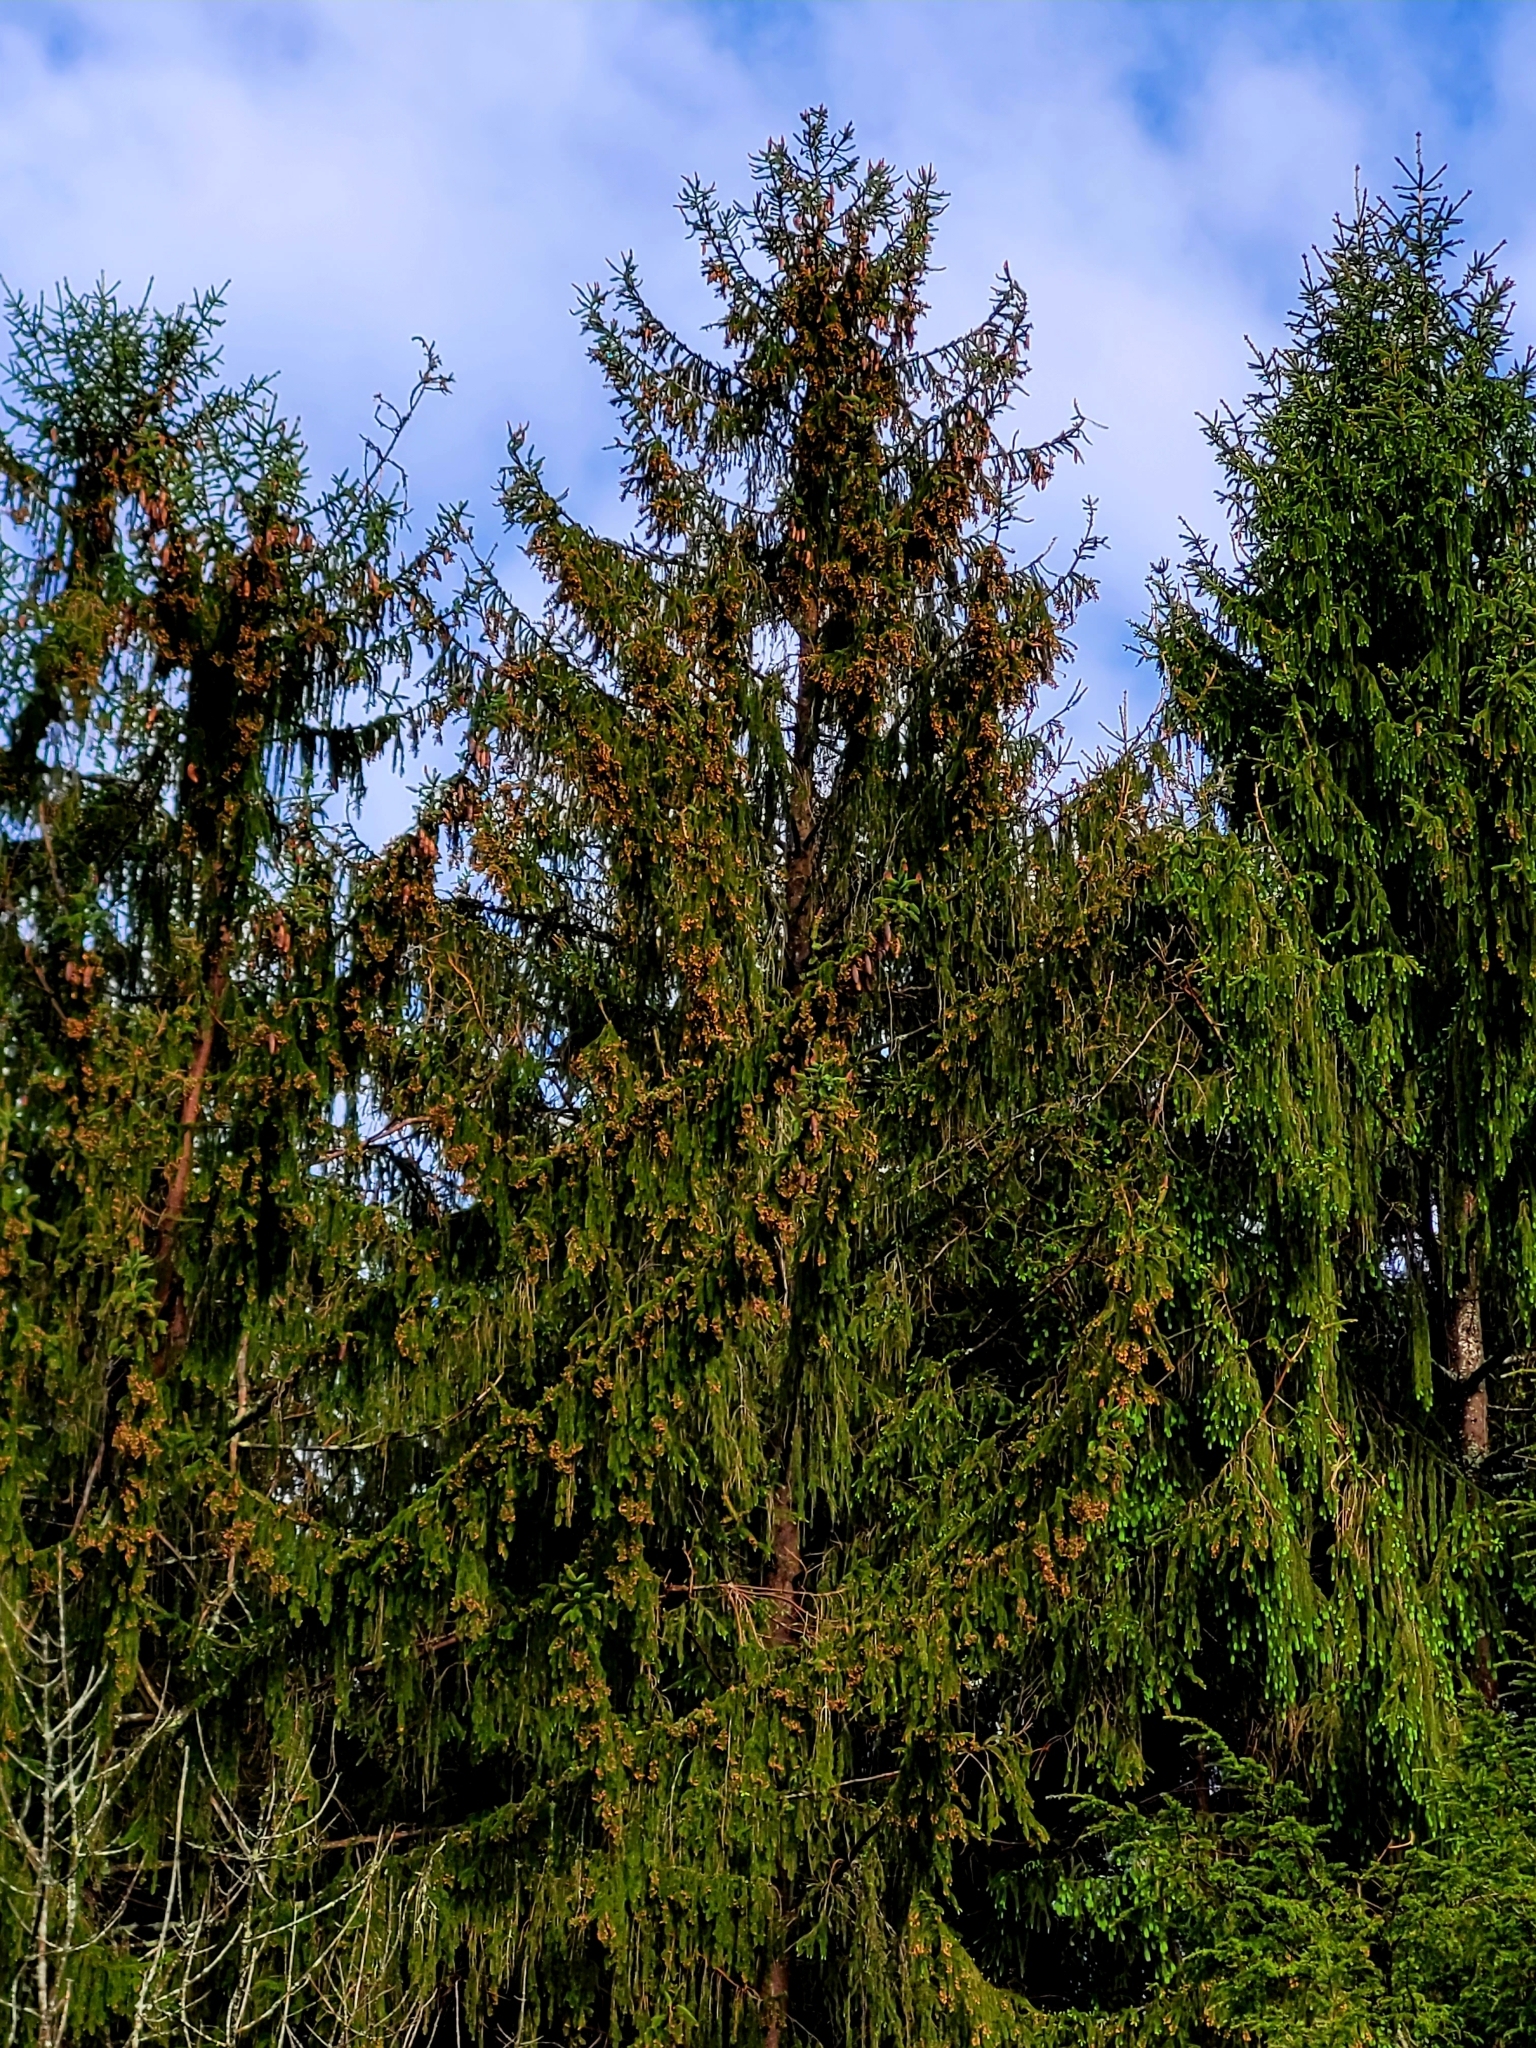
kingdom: Plantae
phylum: Tracheophyta
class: Pinopsida
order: Pinales
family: Pinaceae
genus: Picea
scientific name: Picea abies
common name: Norway spruce
